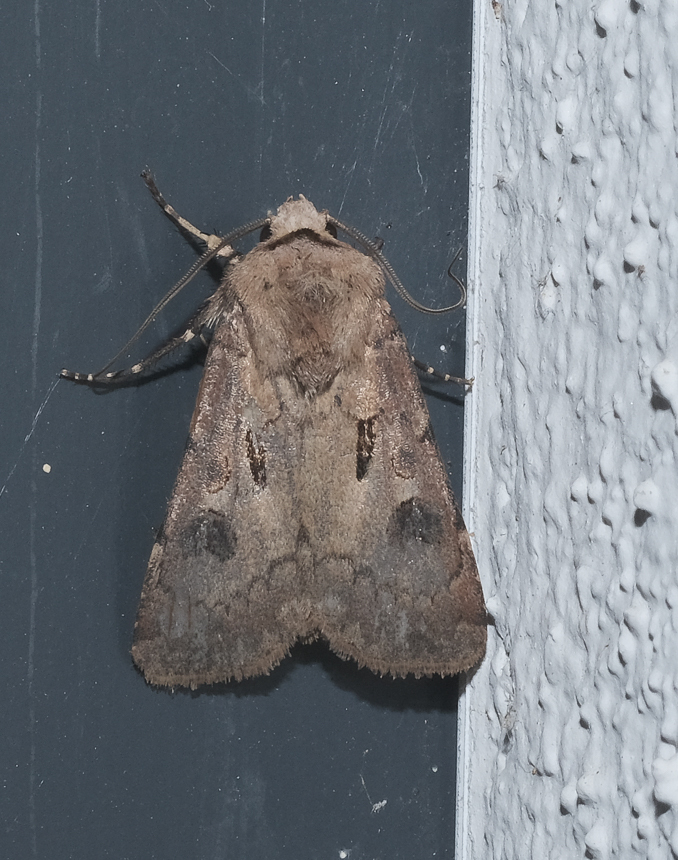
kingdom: Animalia
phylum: Arthropoda
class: Insecta
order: Lepidoptera
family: Noctuidae
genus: Agrotis
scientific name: Agrotis exclamationis
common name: Heart and dart
